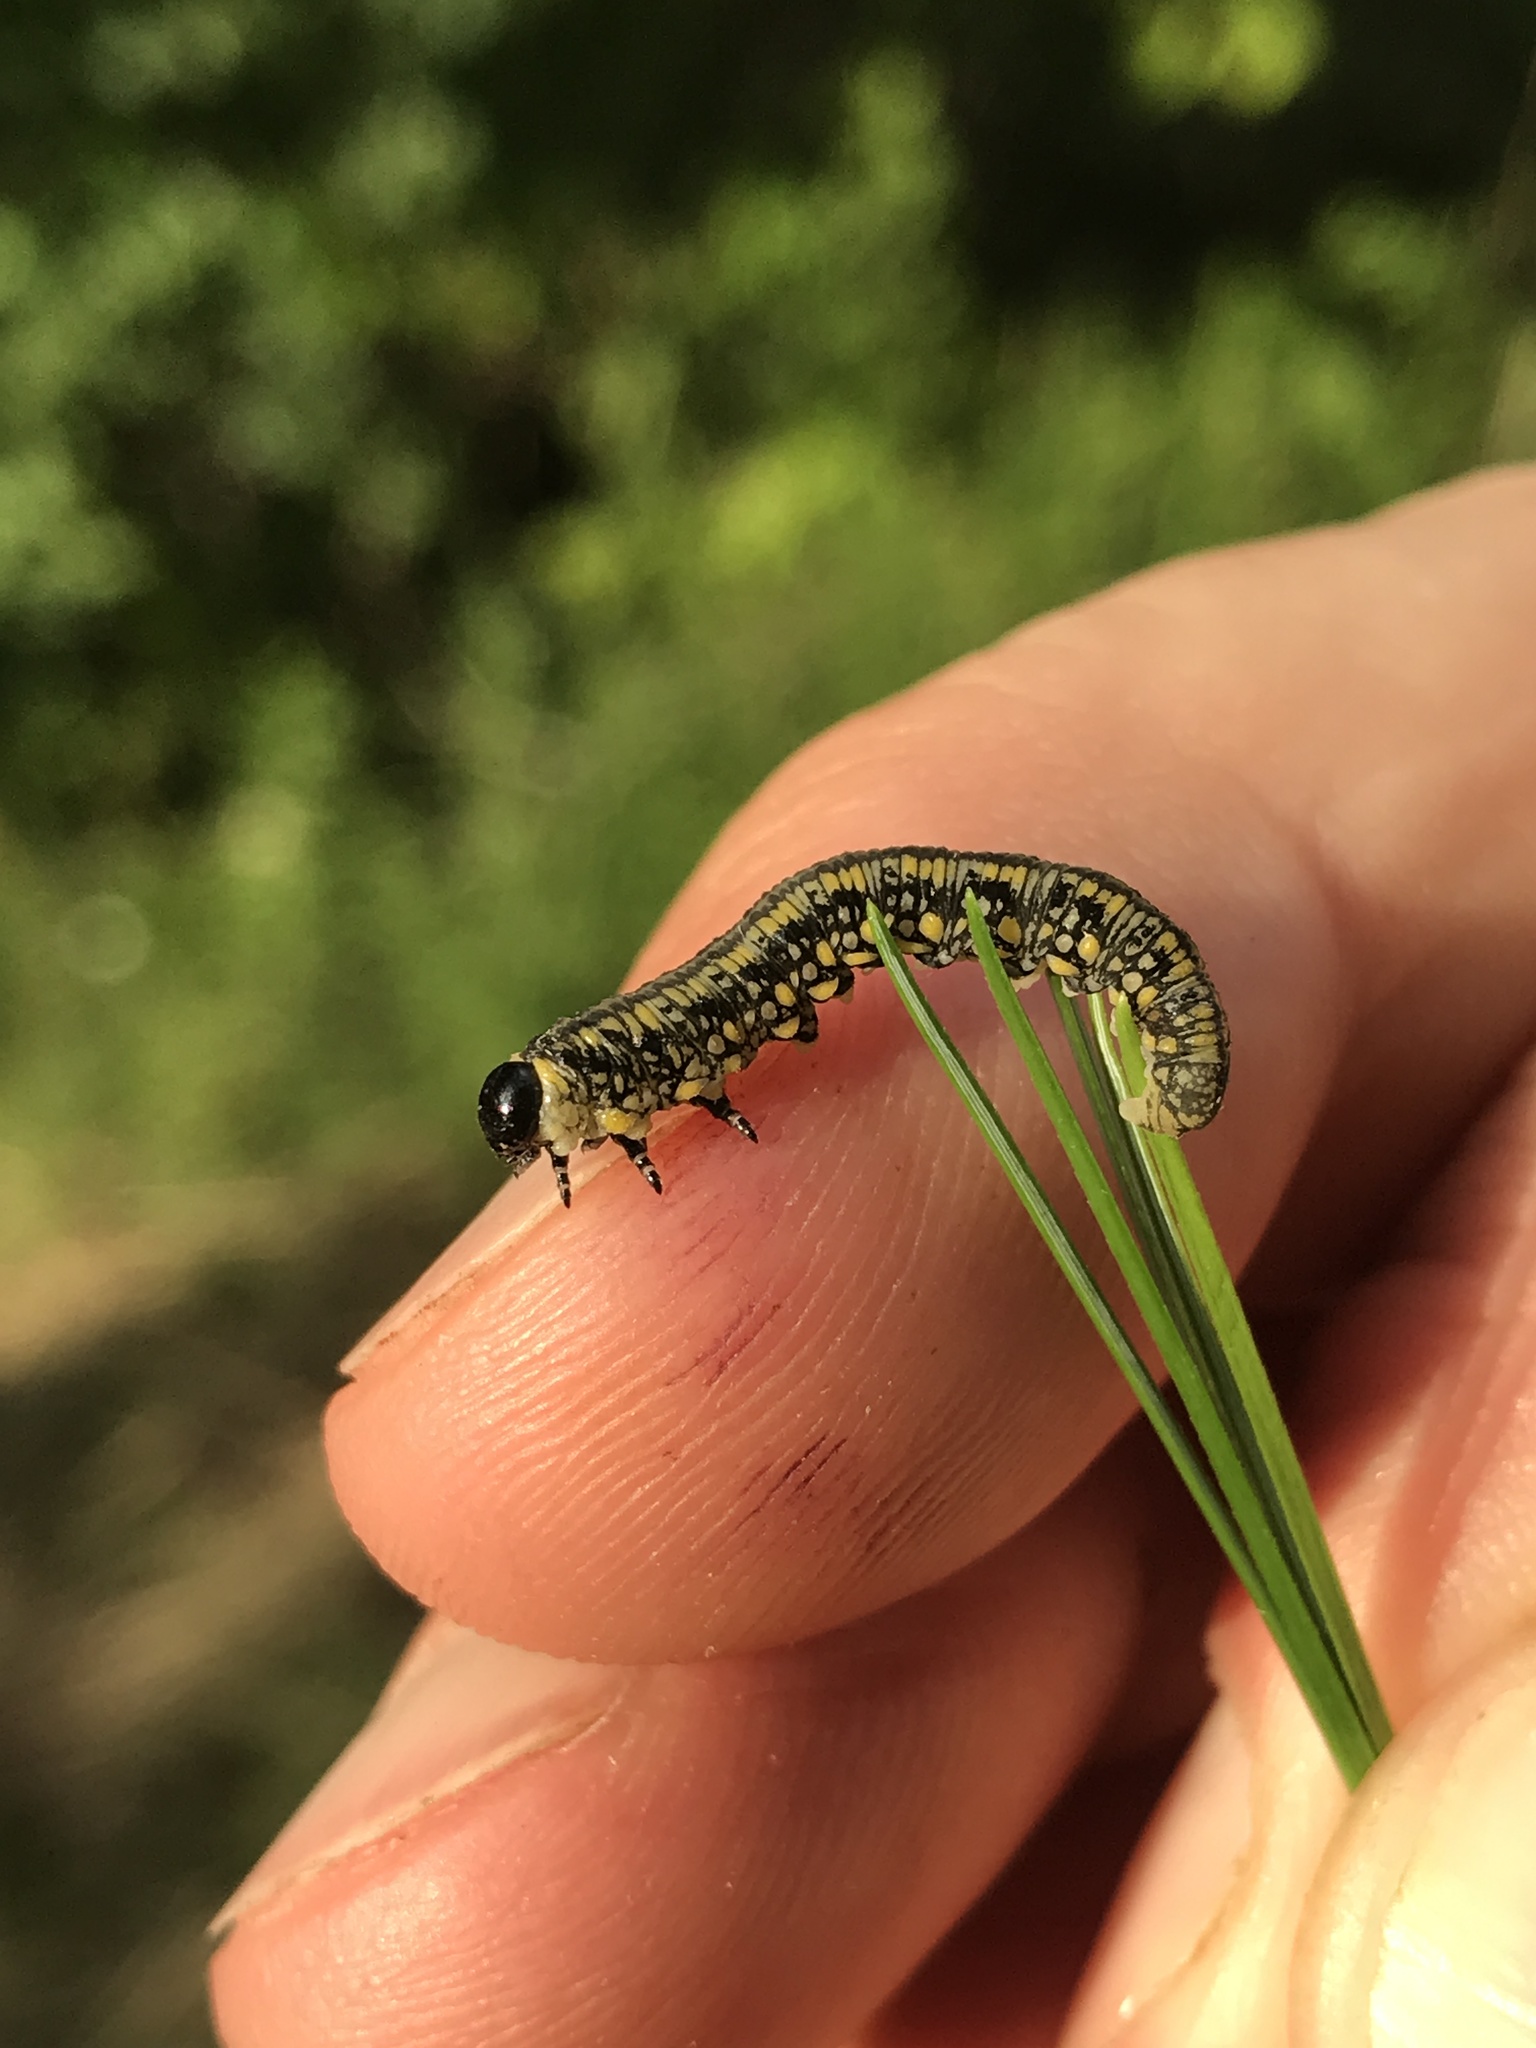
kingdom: Animalia
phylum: Arthropoda
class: Insecta
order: Hymenoptera
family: Diprionidae
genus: Diprion
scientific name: Diprion similis
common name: Pine sawfly
